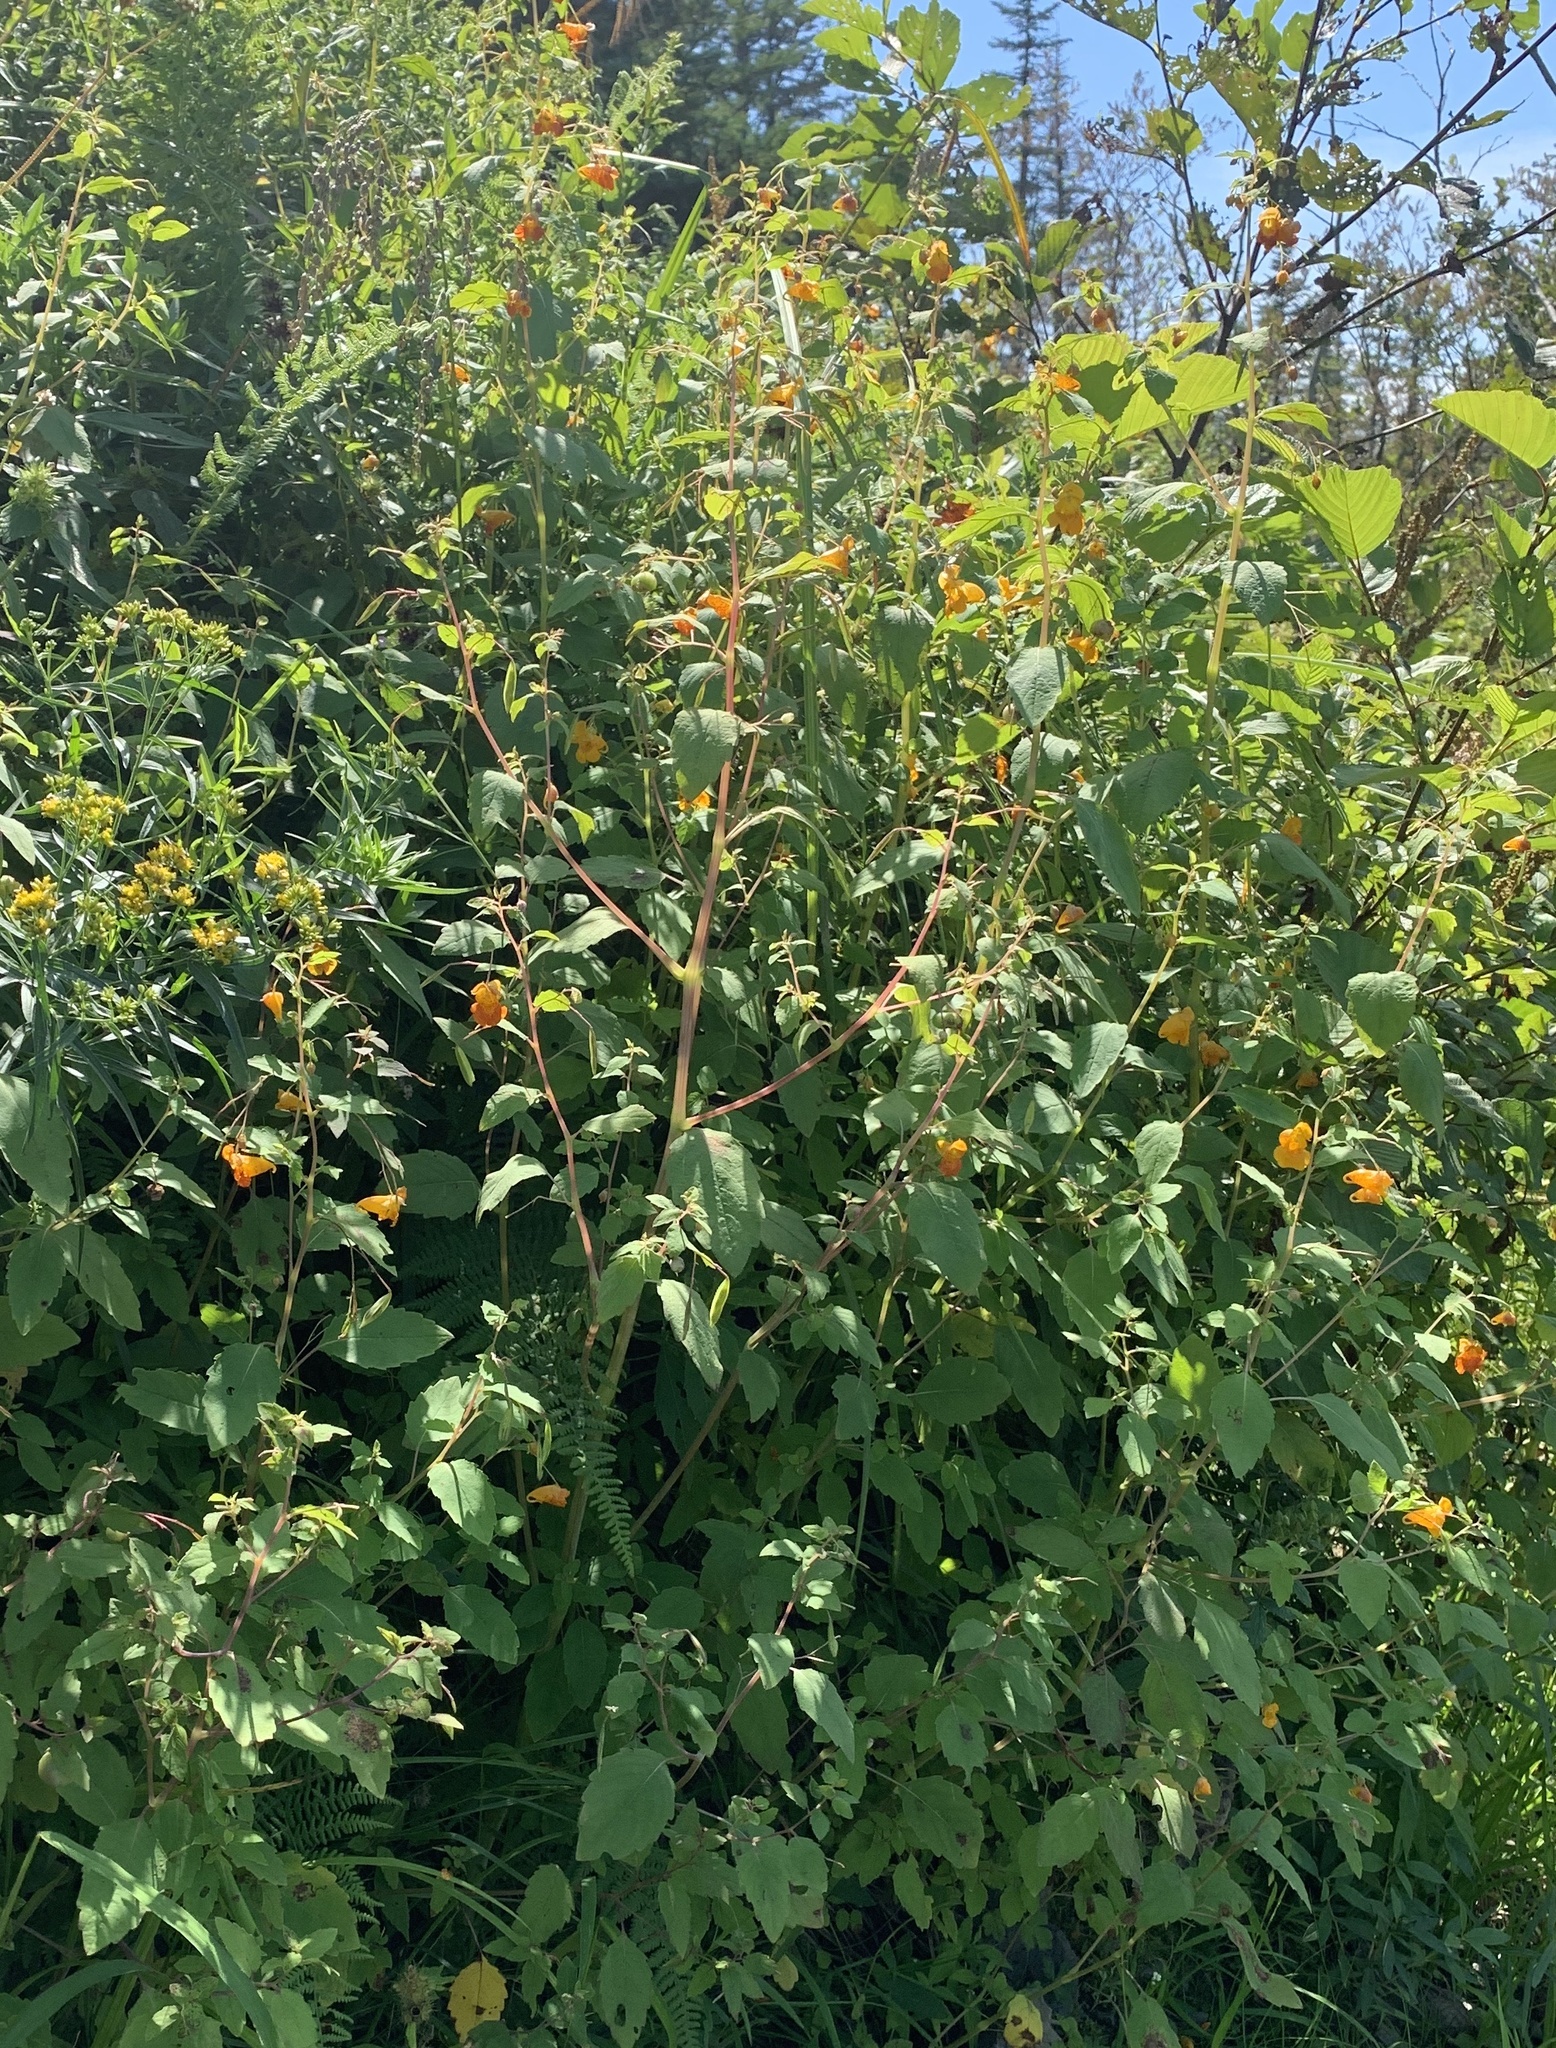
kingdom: Plantae
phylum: Tracheophyta
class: Magnoliopsida
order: Ericales
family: Balsaminaceae
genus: Impatiens
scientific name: Impatiens capensis
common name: Orange balsam
